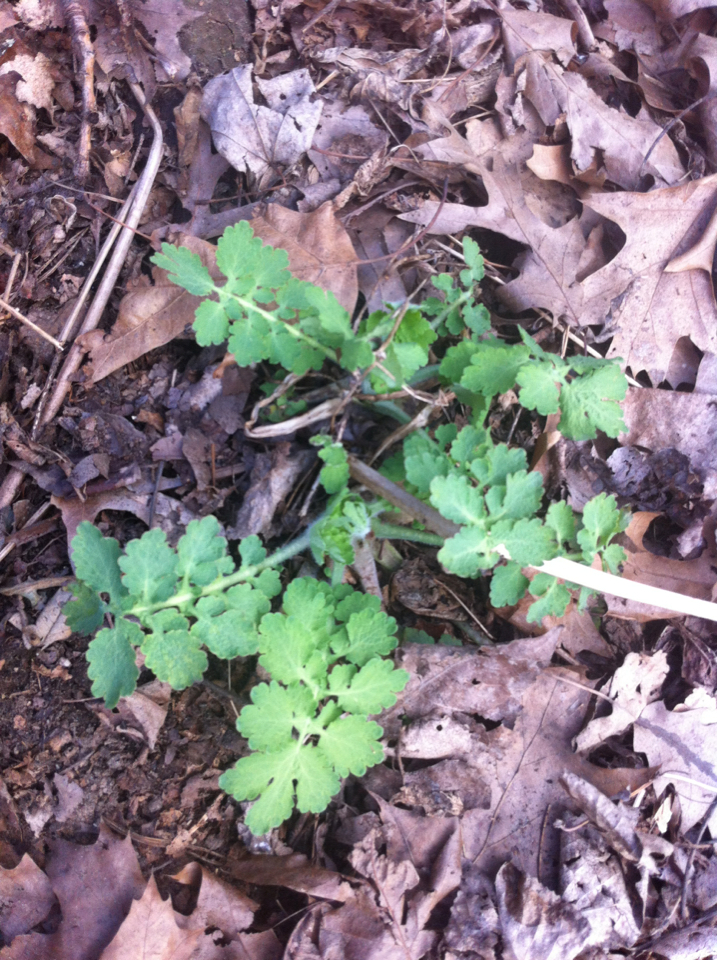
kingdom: Plantae
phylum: Tracheophyta
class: Magnoliopsida
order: Ranunculales
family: Papaveraceae
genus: Chelidonium
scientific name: Chelidonium majus
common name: Greater celandine
